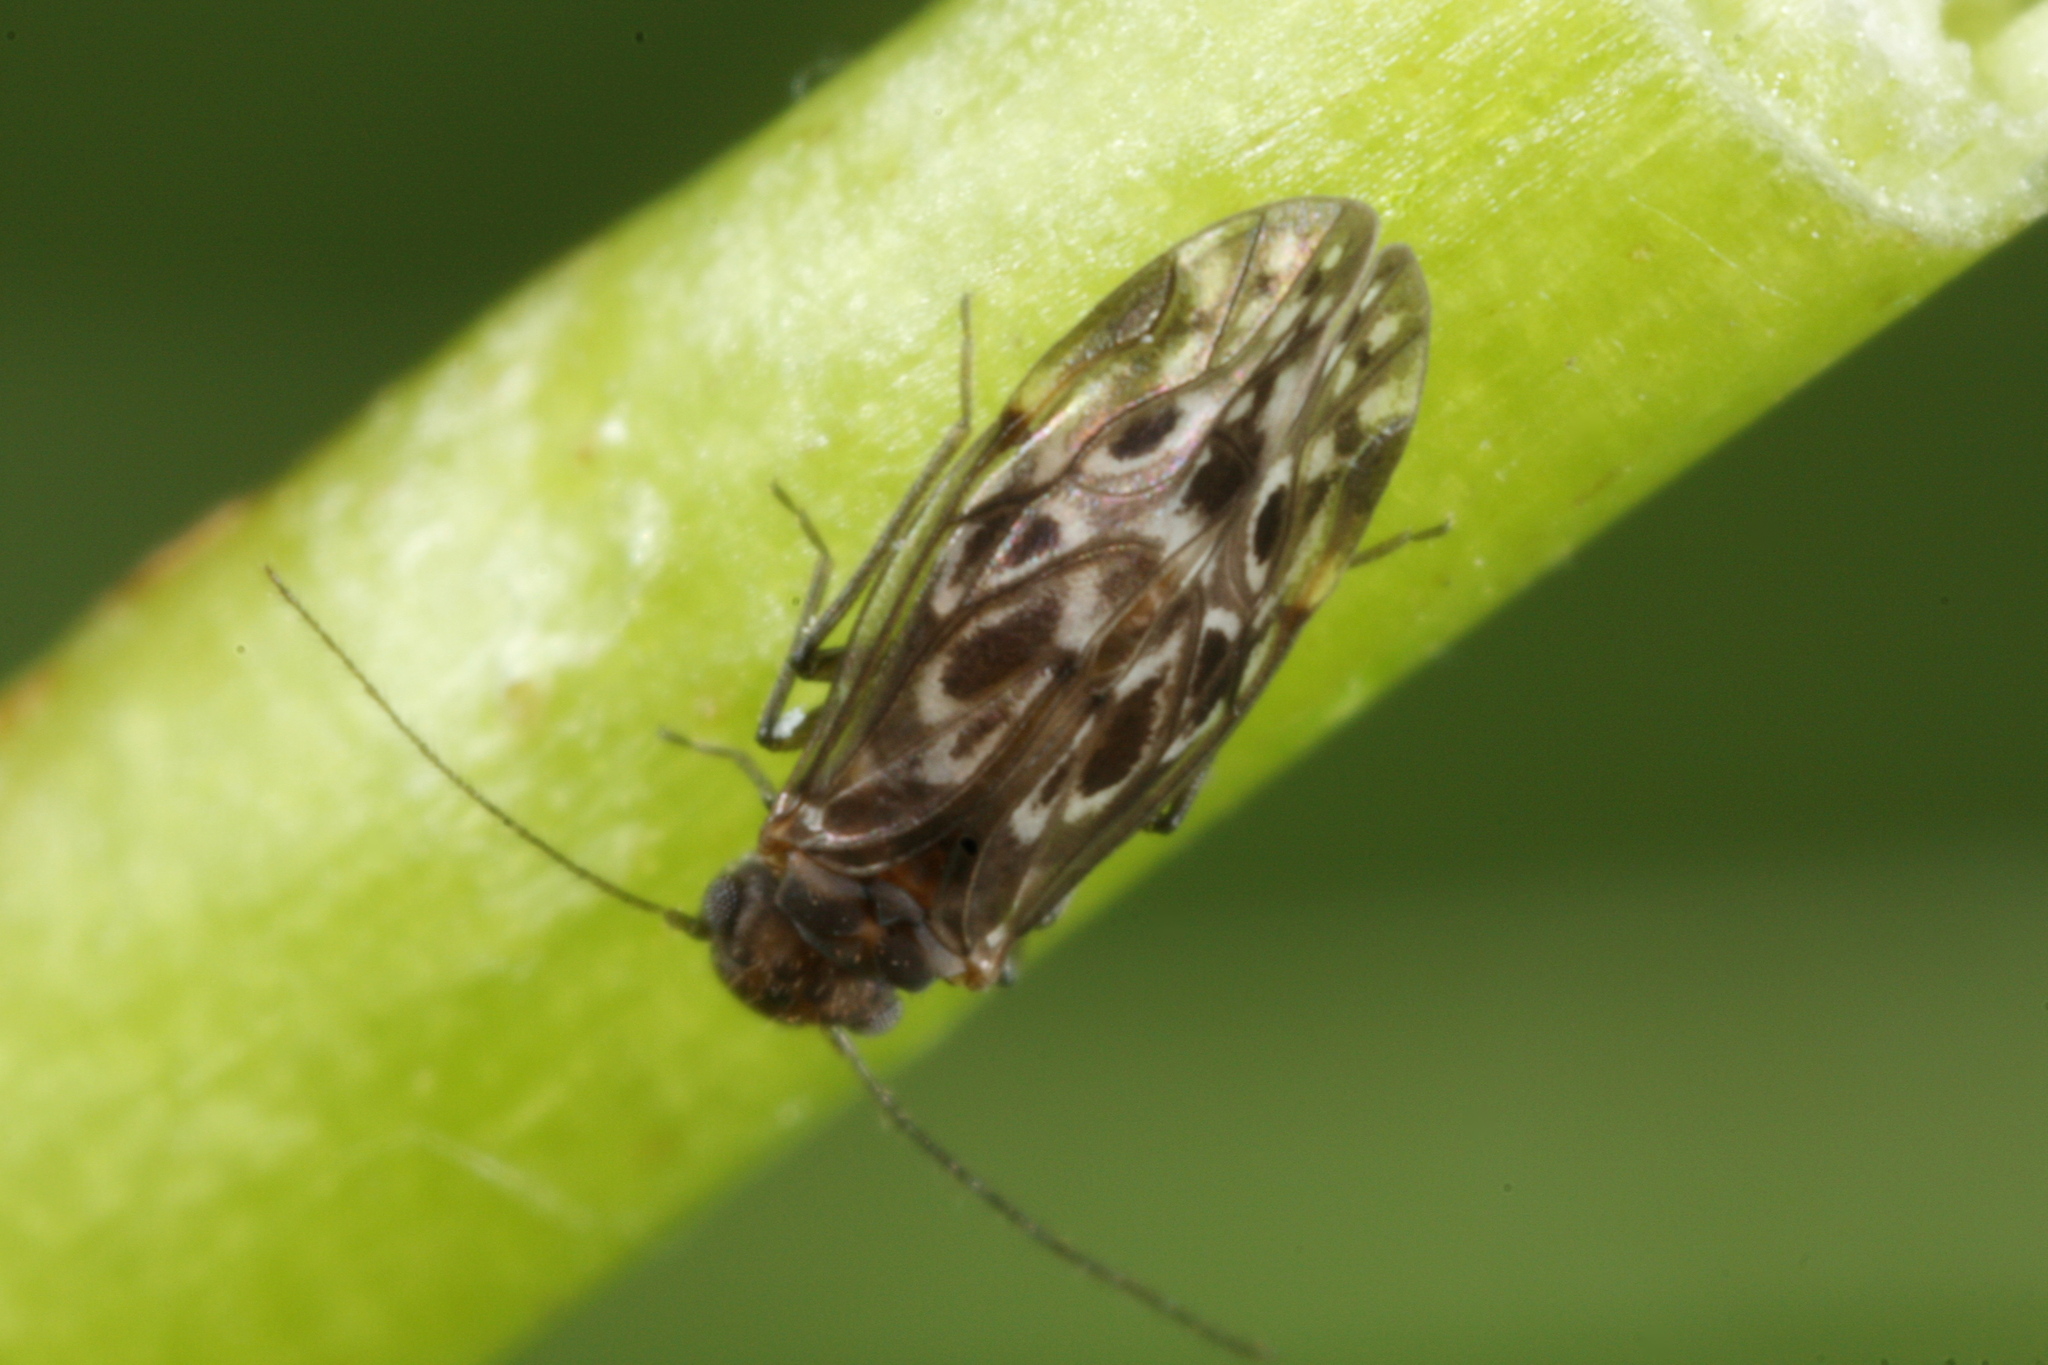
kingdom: Animalia
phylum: Arthropoda
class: Insecta
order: Psocodea
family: Peripsocidae
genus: Peripsocus
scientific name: Peripsocus alboguttatus
